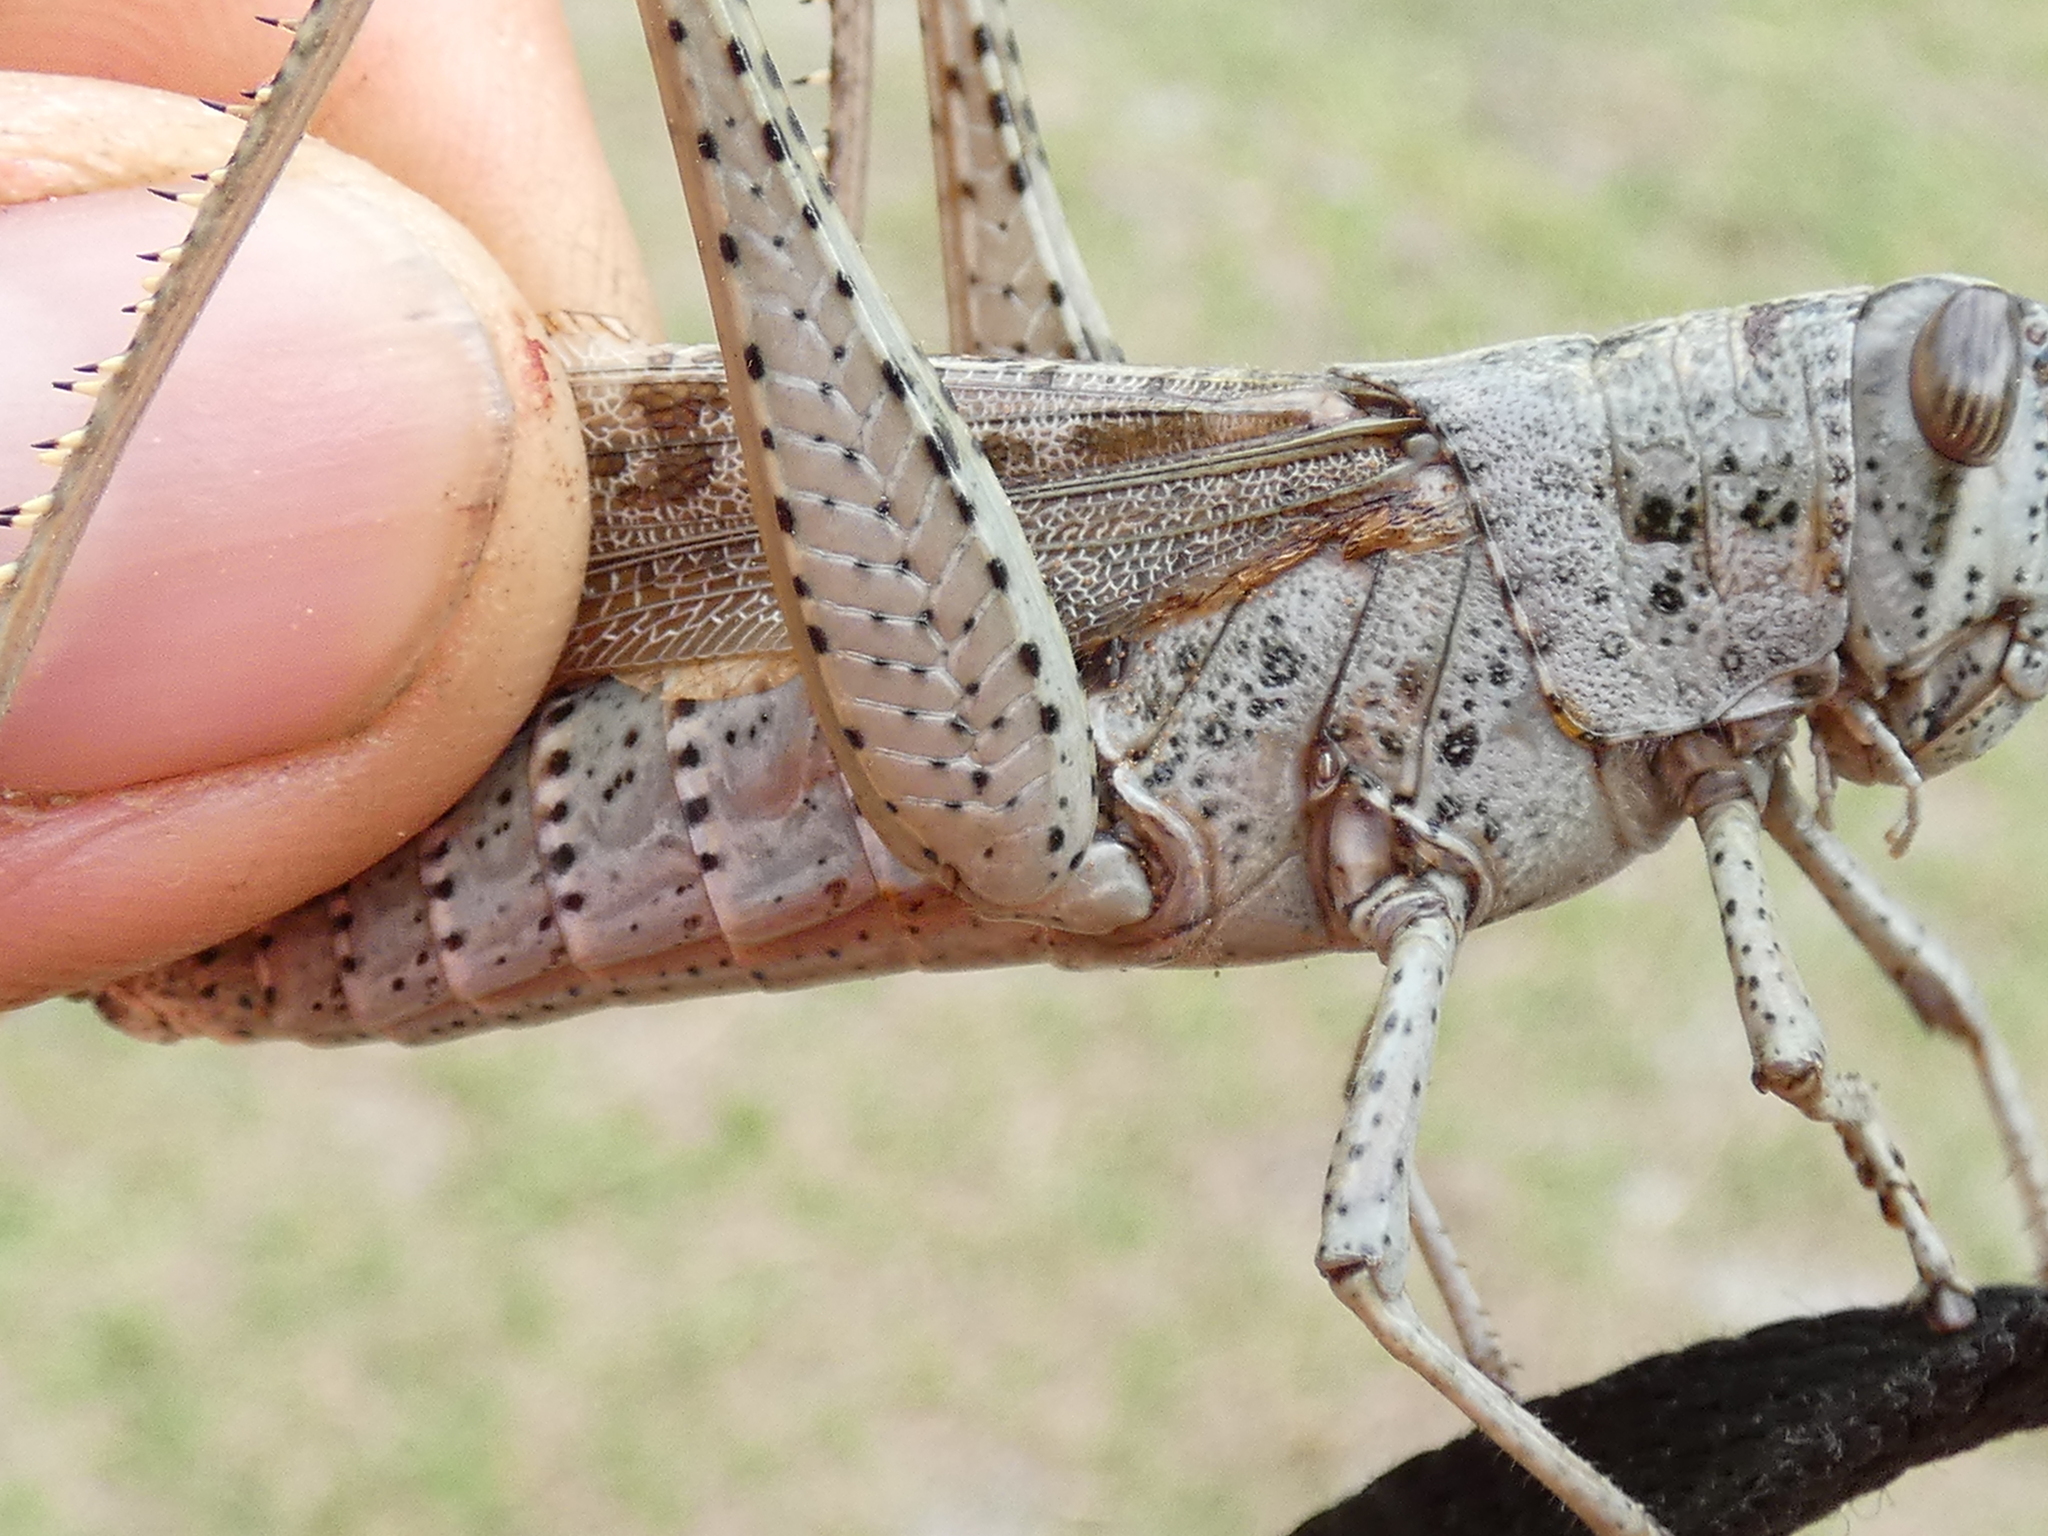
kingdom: Animalia
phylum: Arthropoda
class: Insecta
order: Orthoptera
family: Acrididae
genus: Schistocerca
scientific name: Schistocerca rubiginosa
